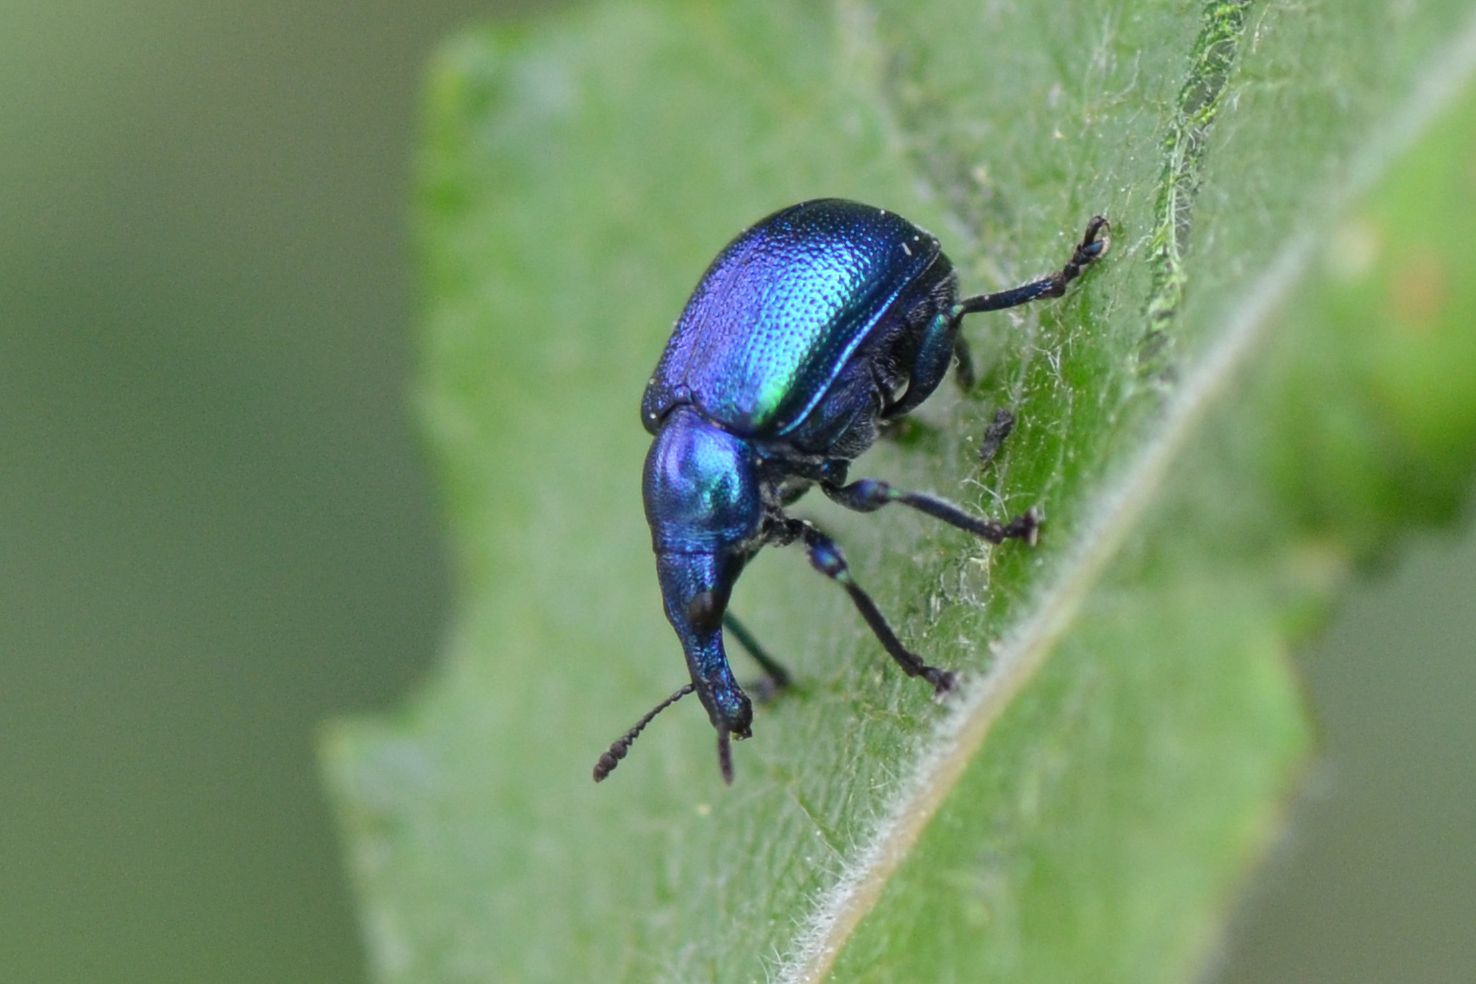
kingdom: Animalia
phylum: Arthropoda
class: Insecta
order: Coleoptera
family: Attelabidae
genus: Byctiscus
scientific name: Byctiscus betulae
